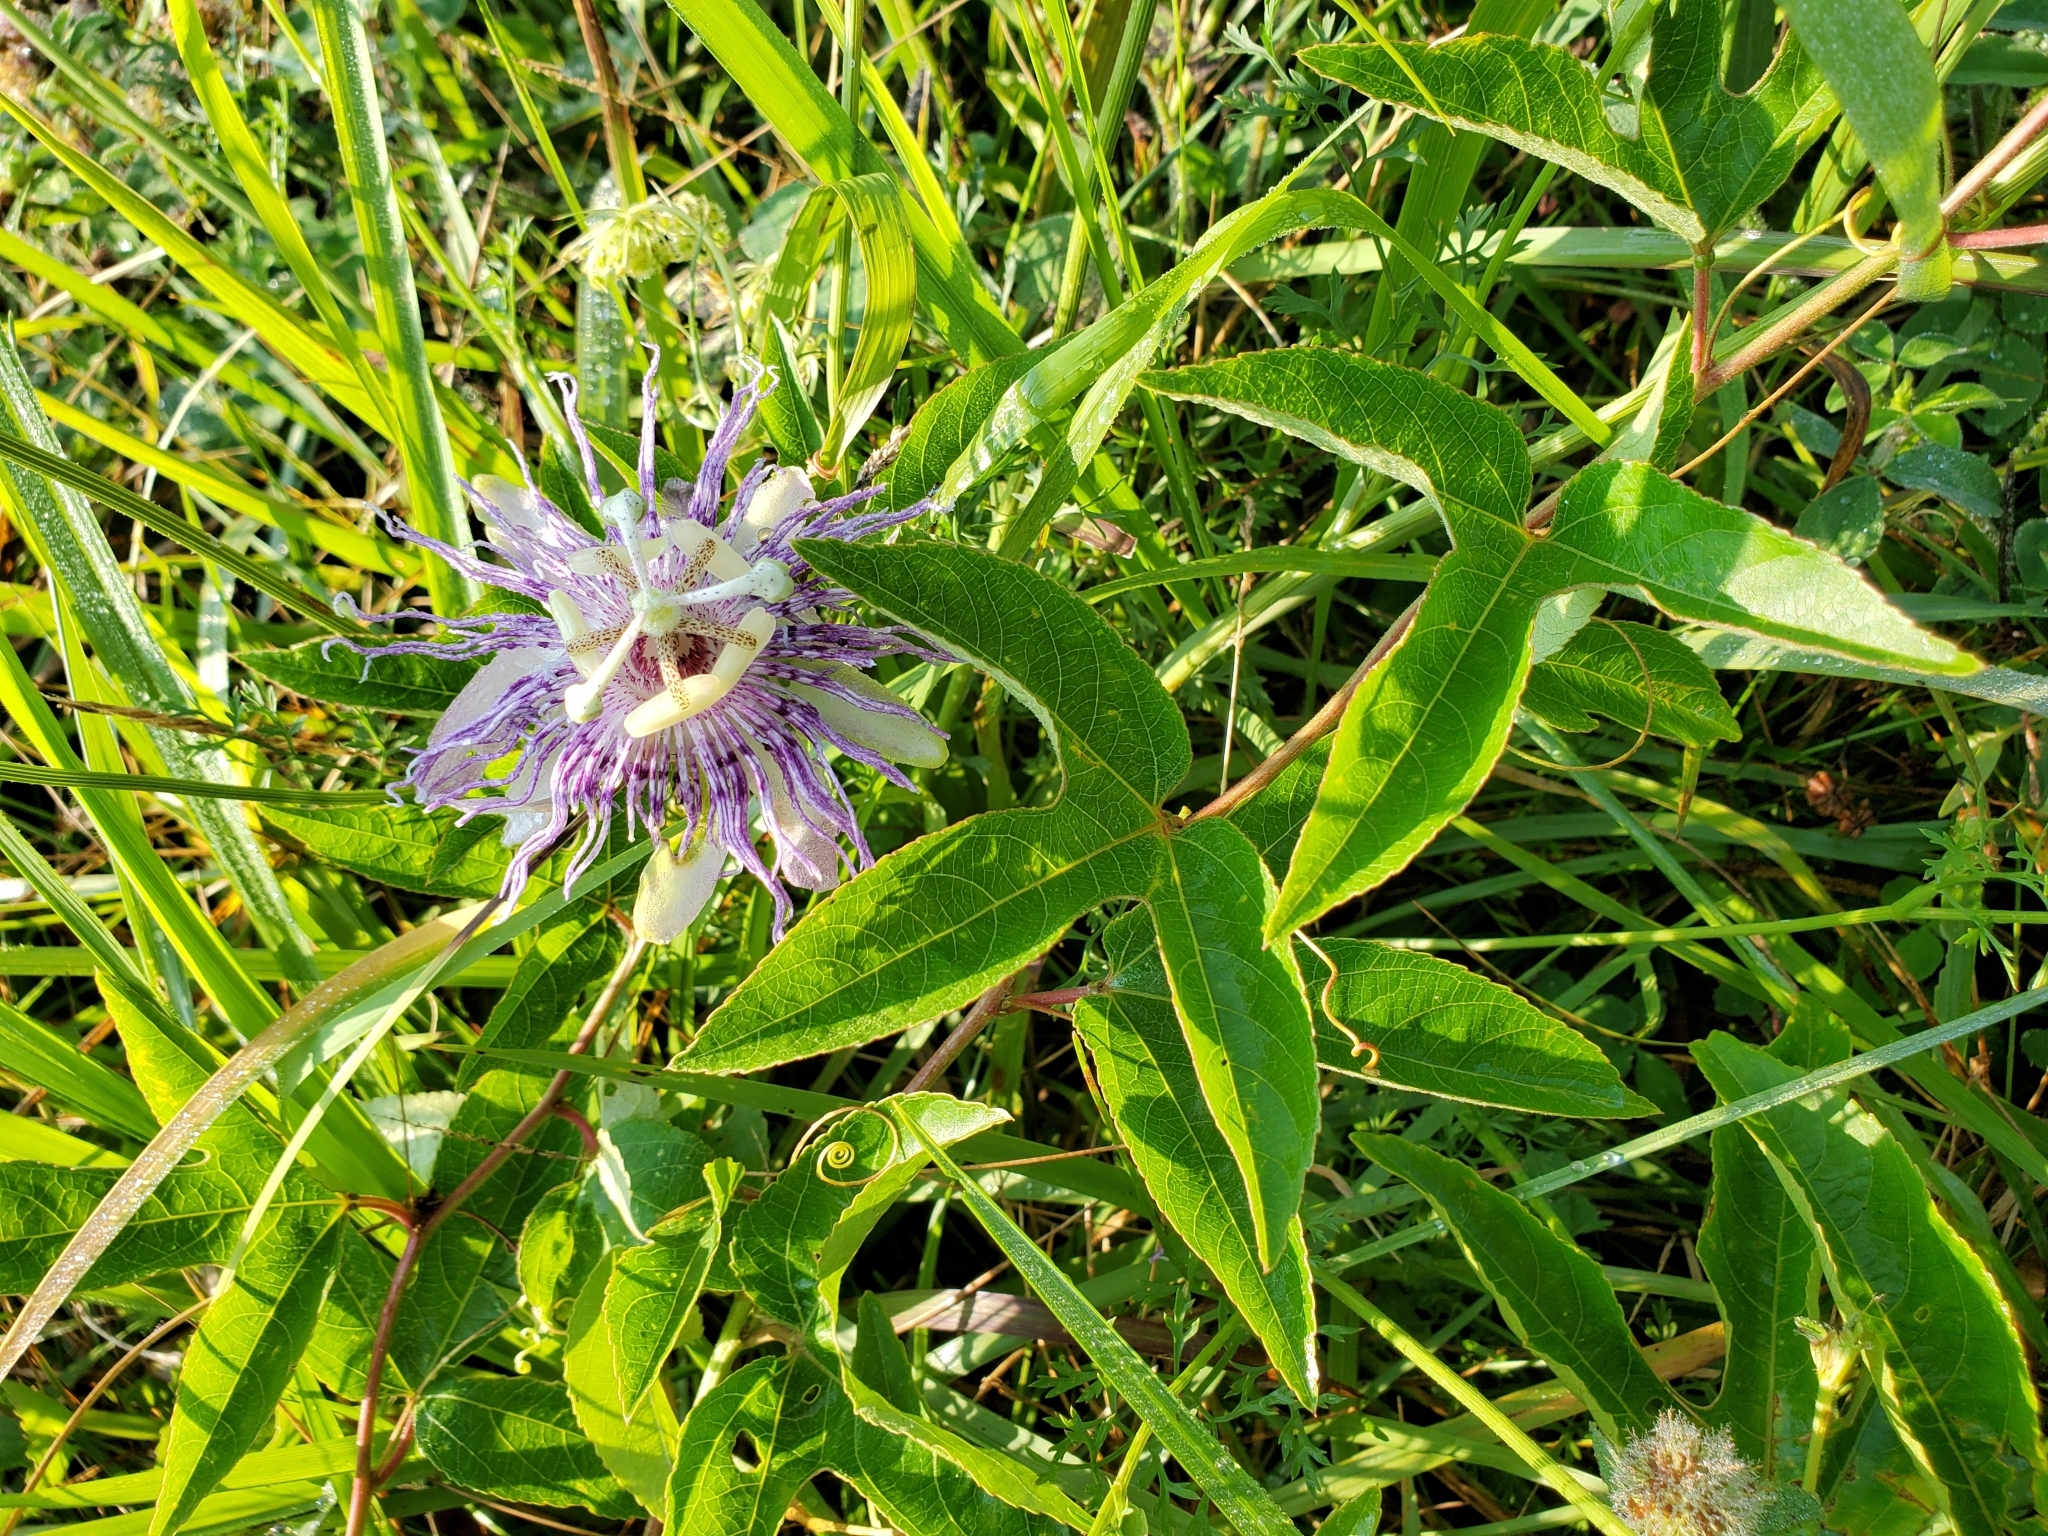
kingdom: Plantae
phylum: Tracheophyta
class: Magnoliopsida
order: Malpighiales
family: Passifloraceae
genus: Passiflora
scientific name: Passiflora incarnata
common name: Apricot-vine
